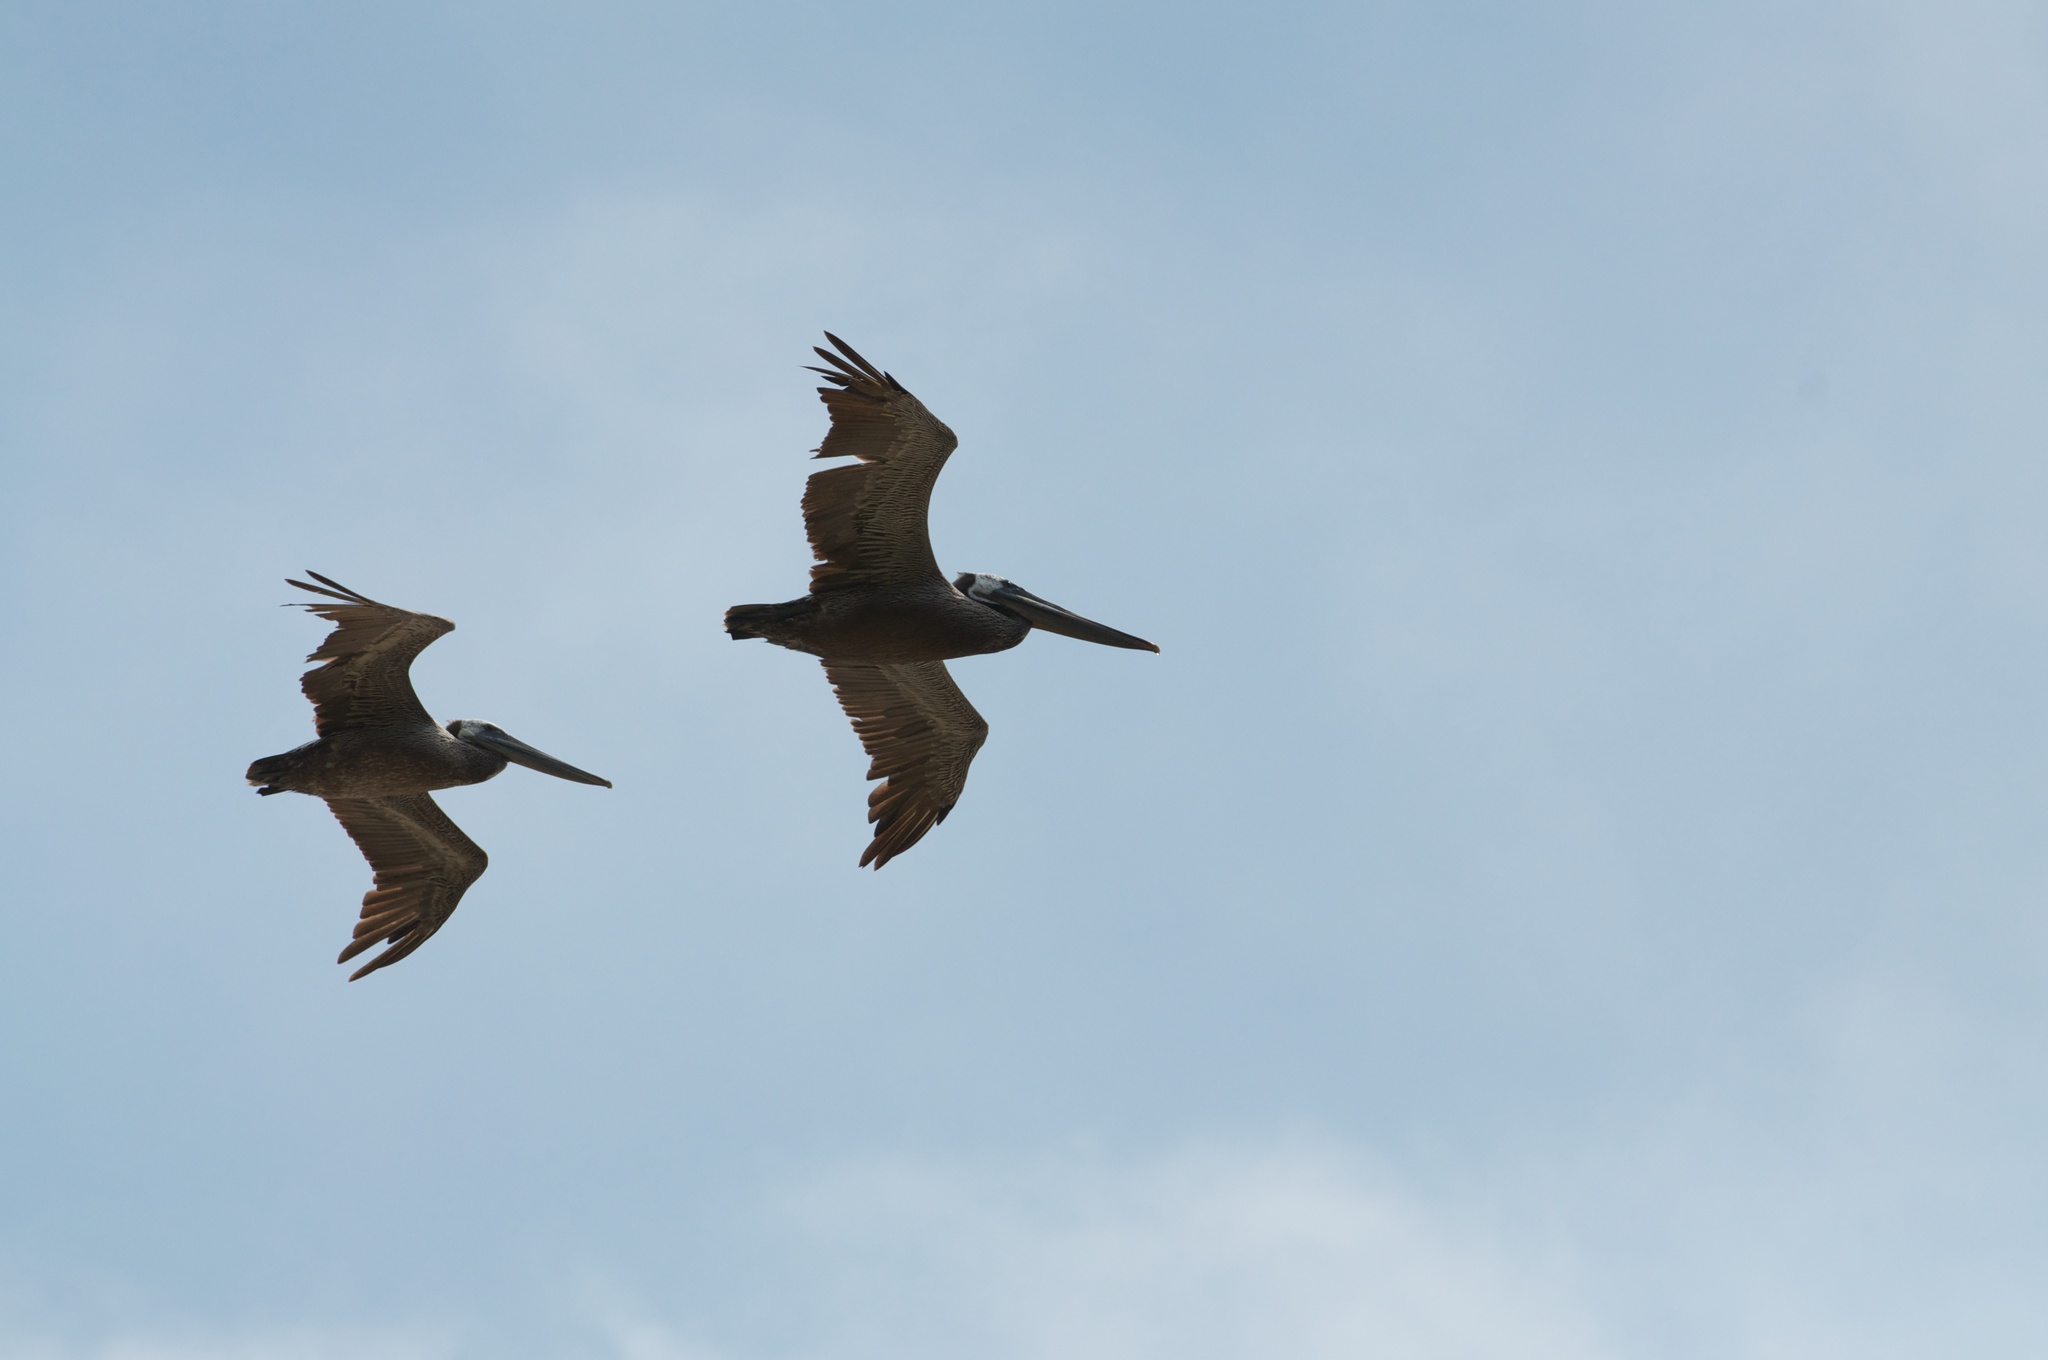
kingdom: Animalia
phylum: Chordata
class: Aves
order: Pelecaniformes
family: Pelecanidae
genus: Pelecanus
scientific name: Pelecanus occidentalis
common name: Brown pelican
